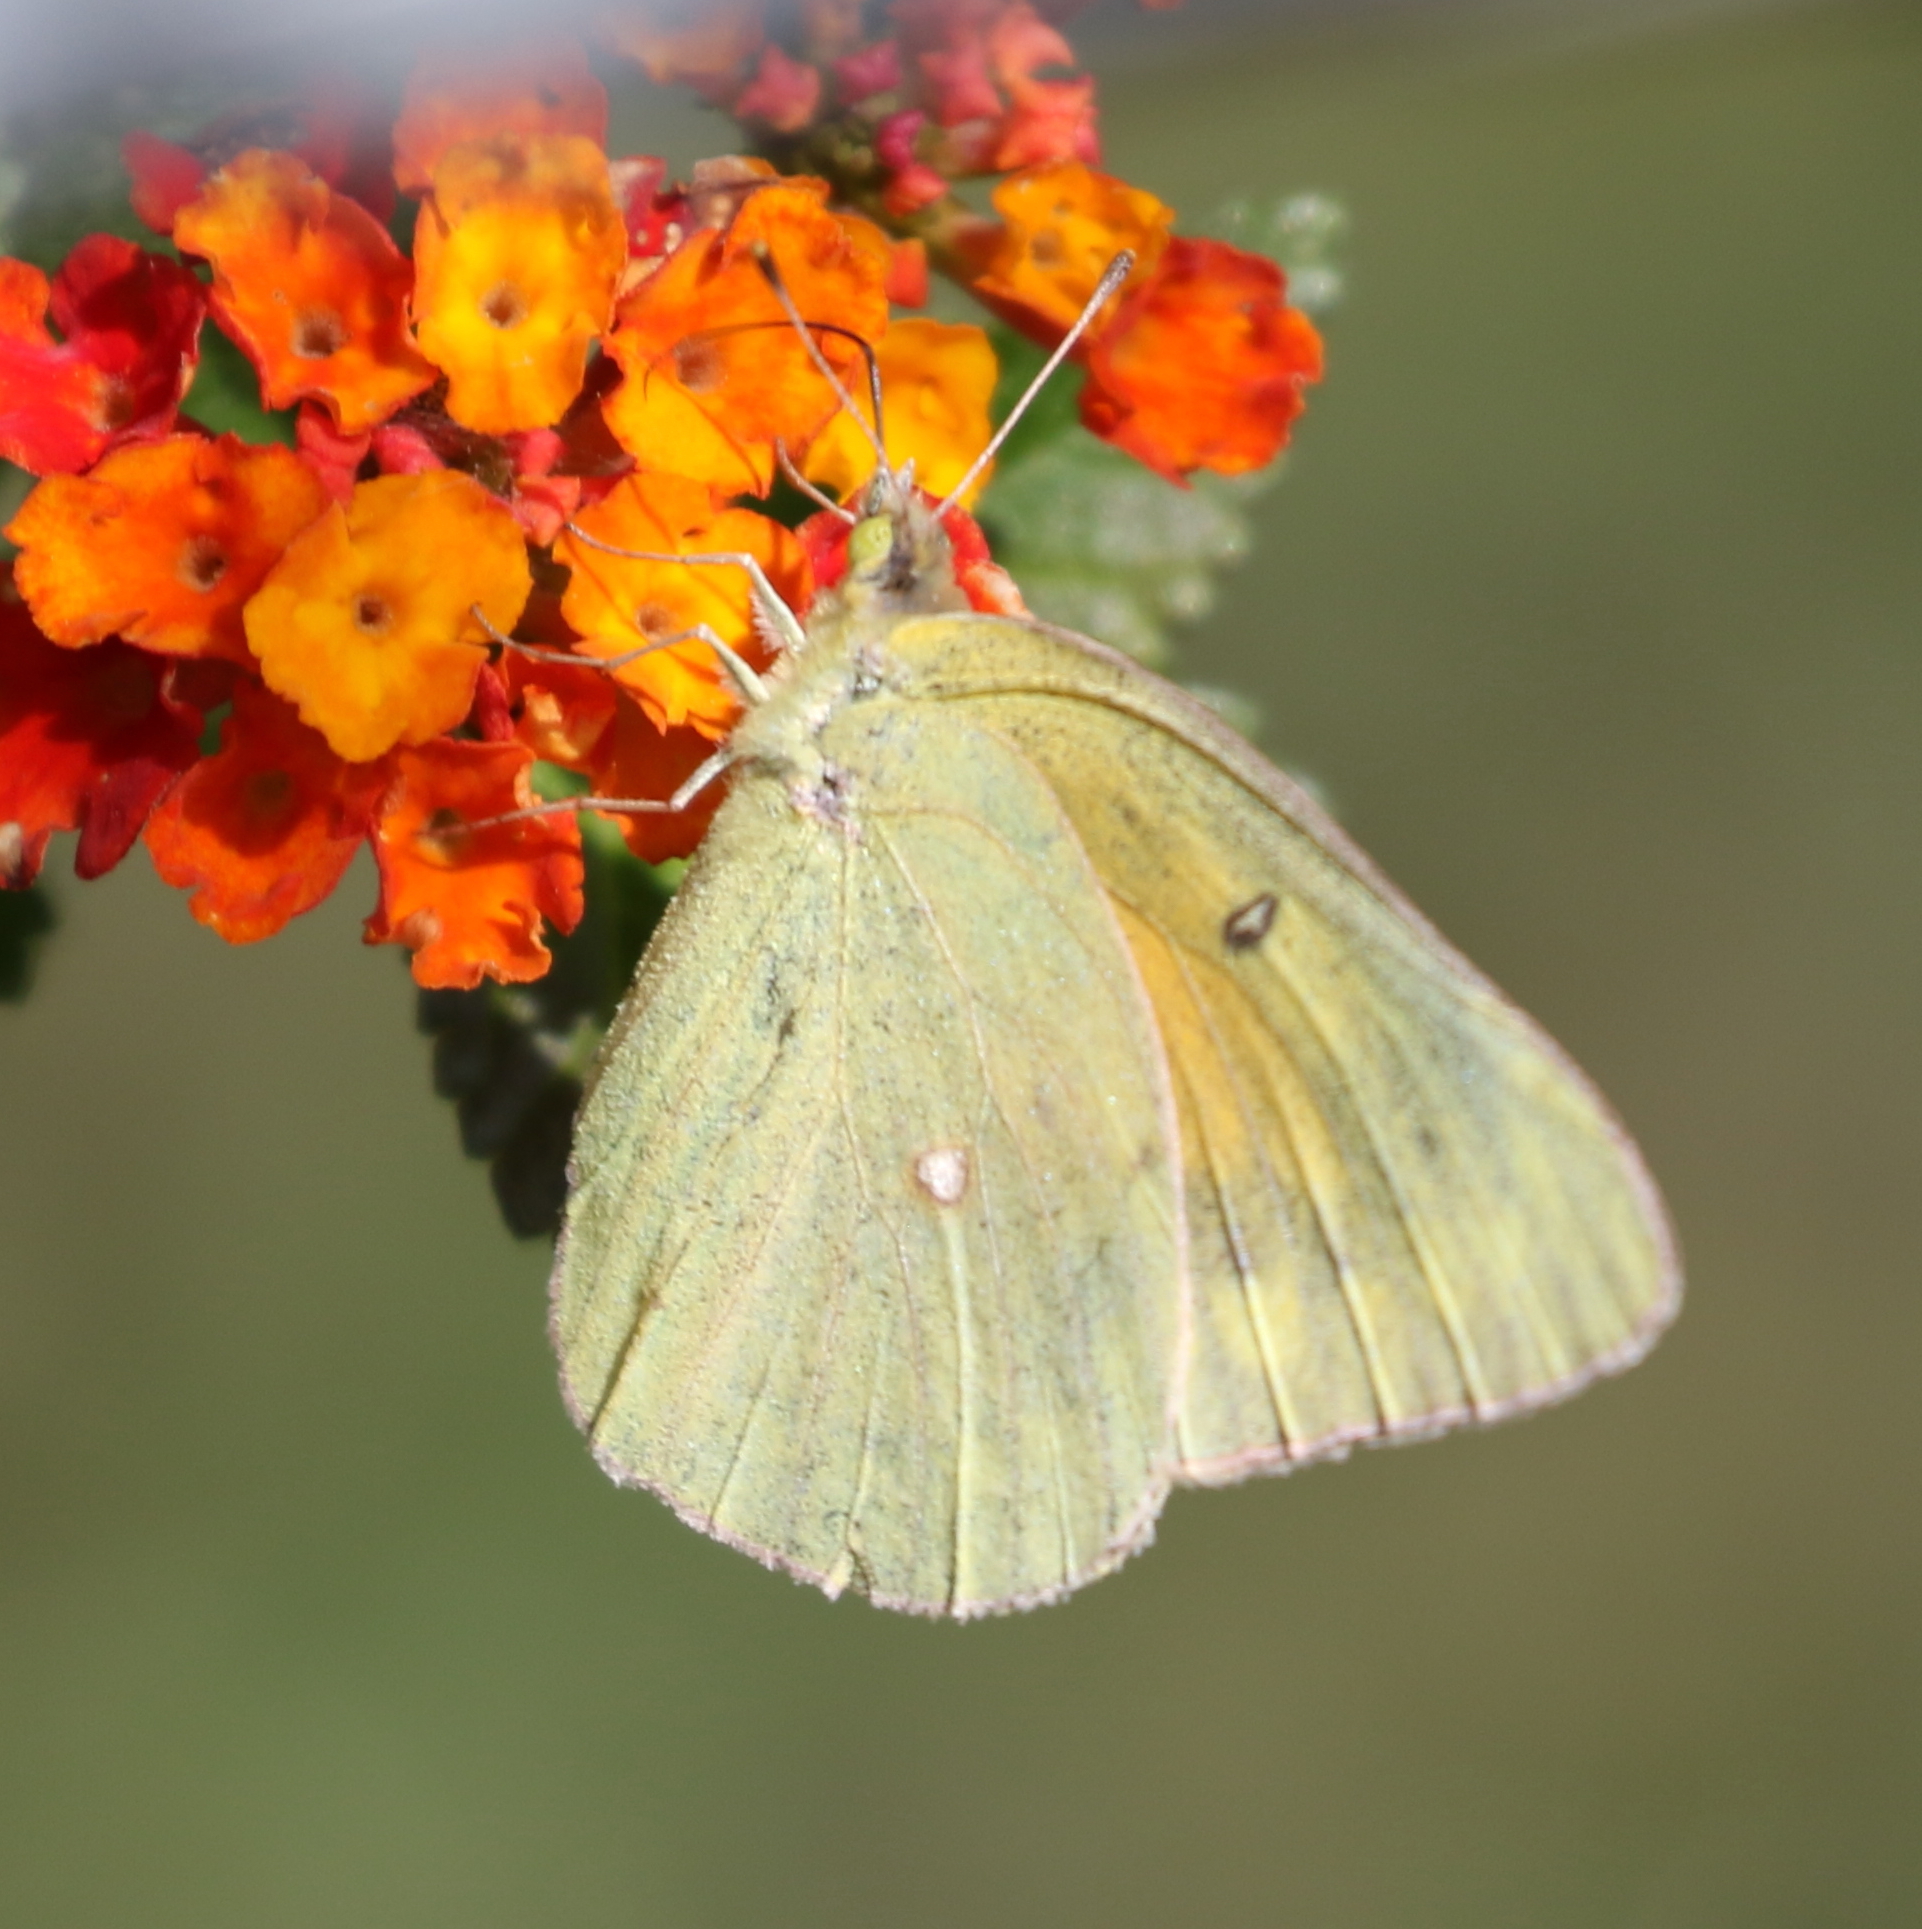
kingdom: Animalia
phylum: Arthropoda
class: Insecta
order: Lepidoptera
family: Pieridae
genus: Colias
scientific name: Colias eurytheme
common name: Alfalfa butterfly
